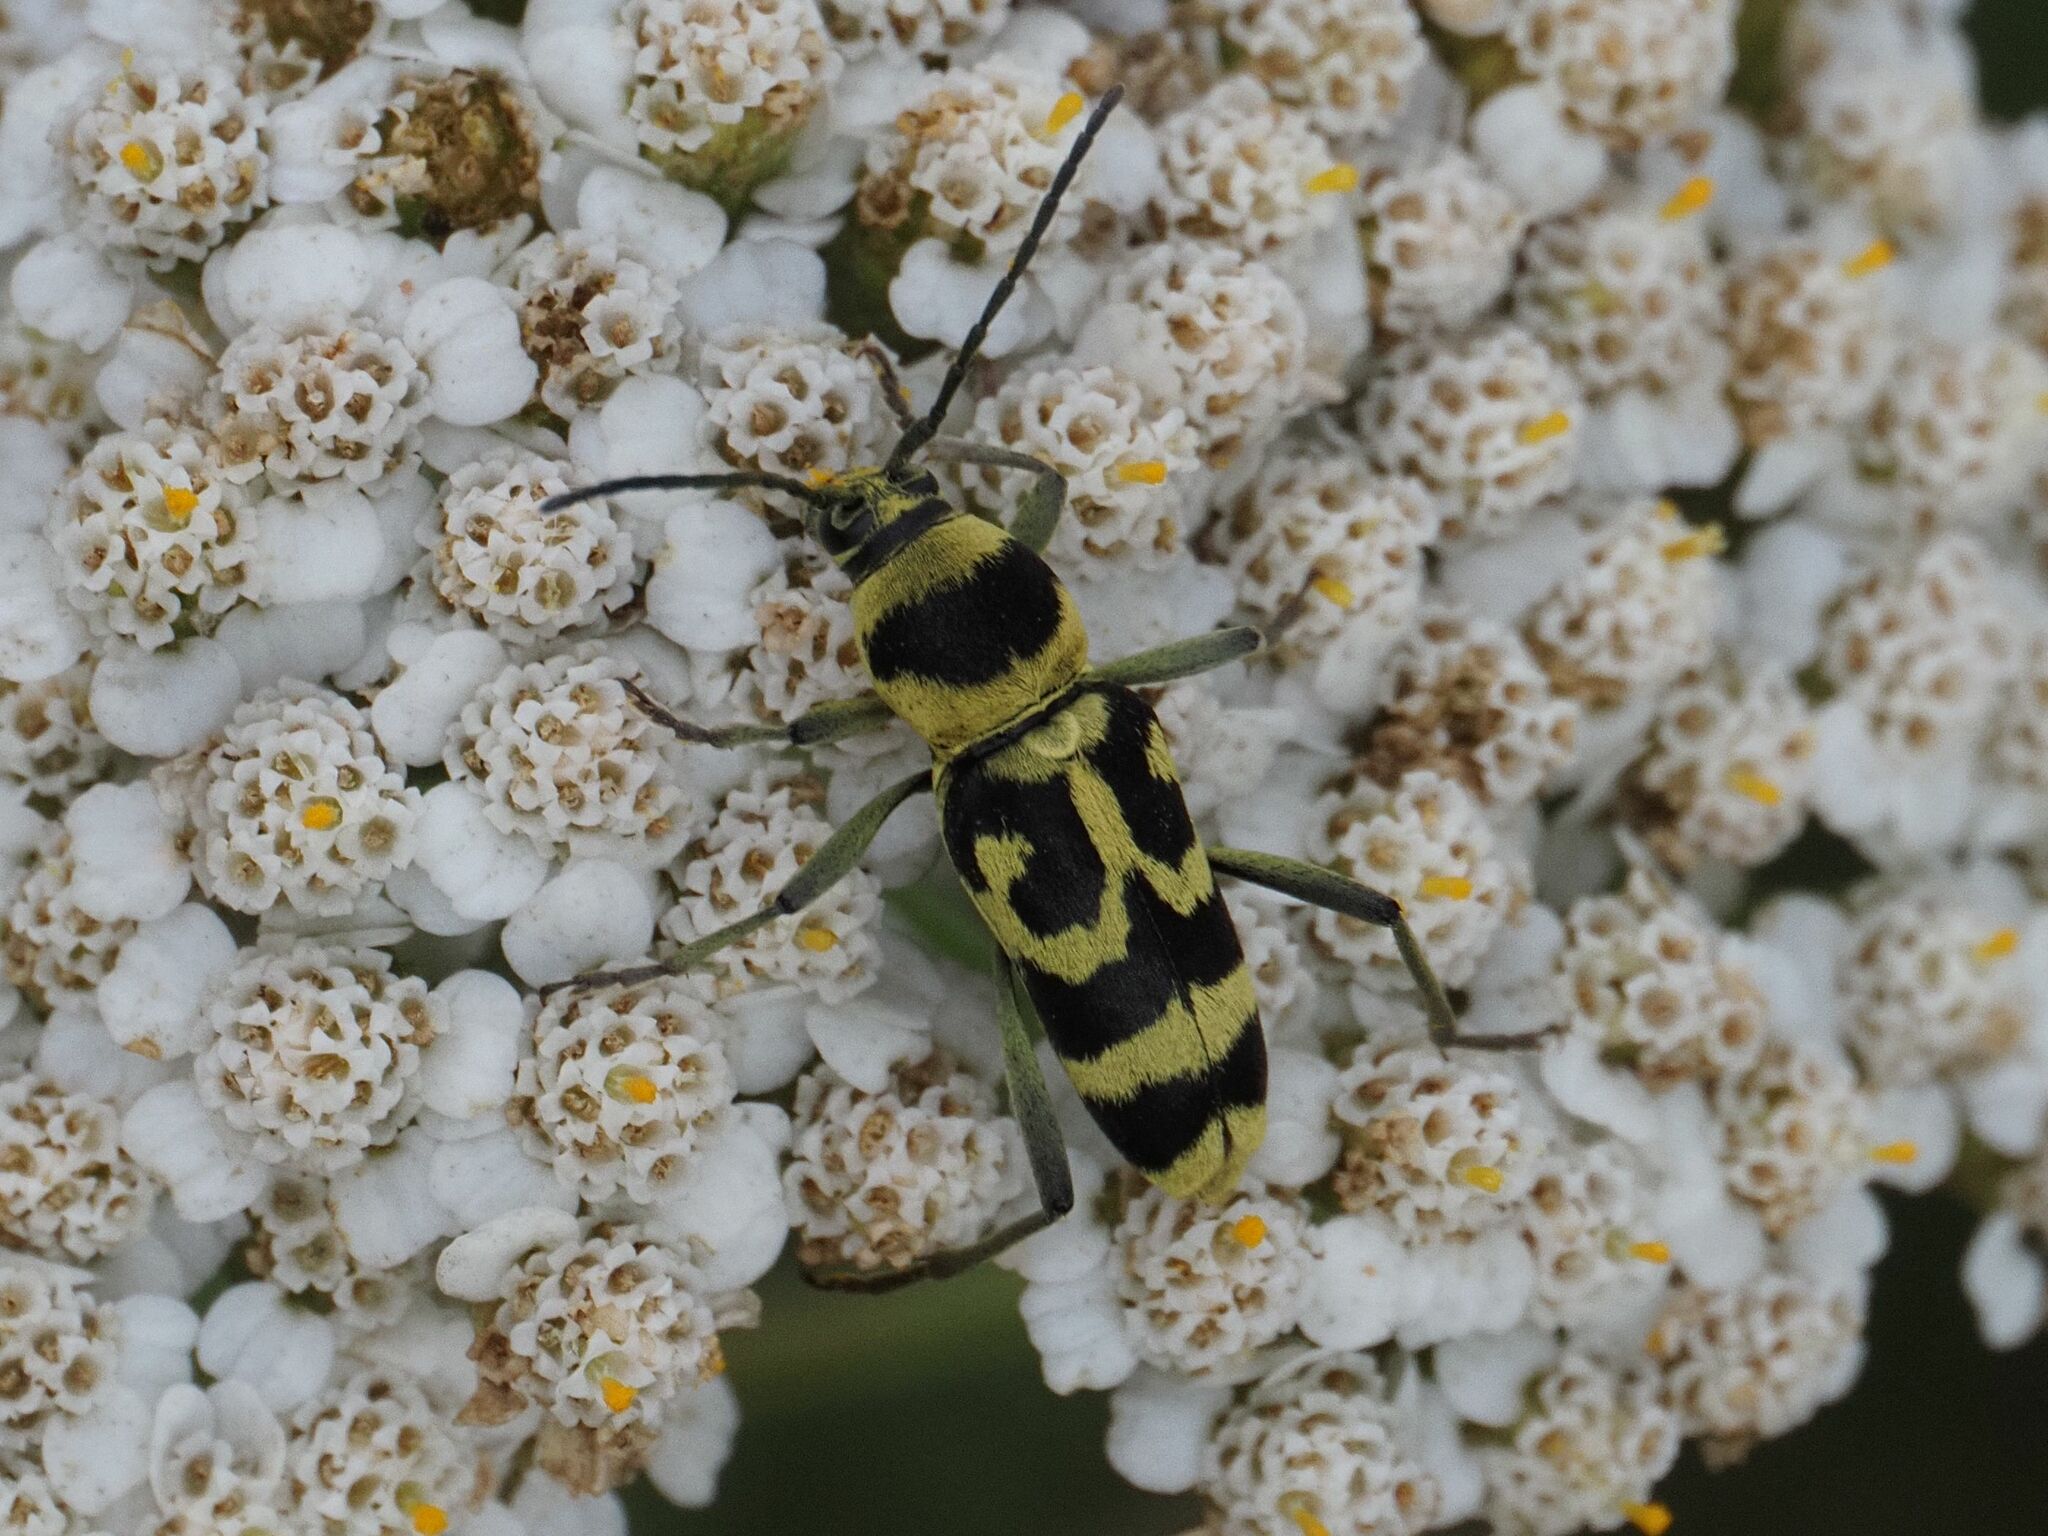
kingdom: Animalia
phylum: Arthropoda
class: Insecta
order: Coleoptera
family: Cerambycidae
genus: Chlorophorus
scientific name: Chlorophorus varius
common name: Grape wood borer
